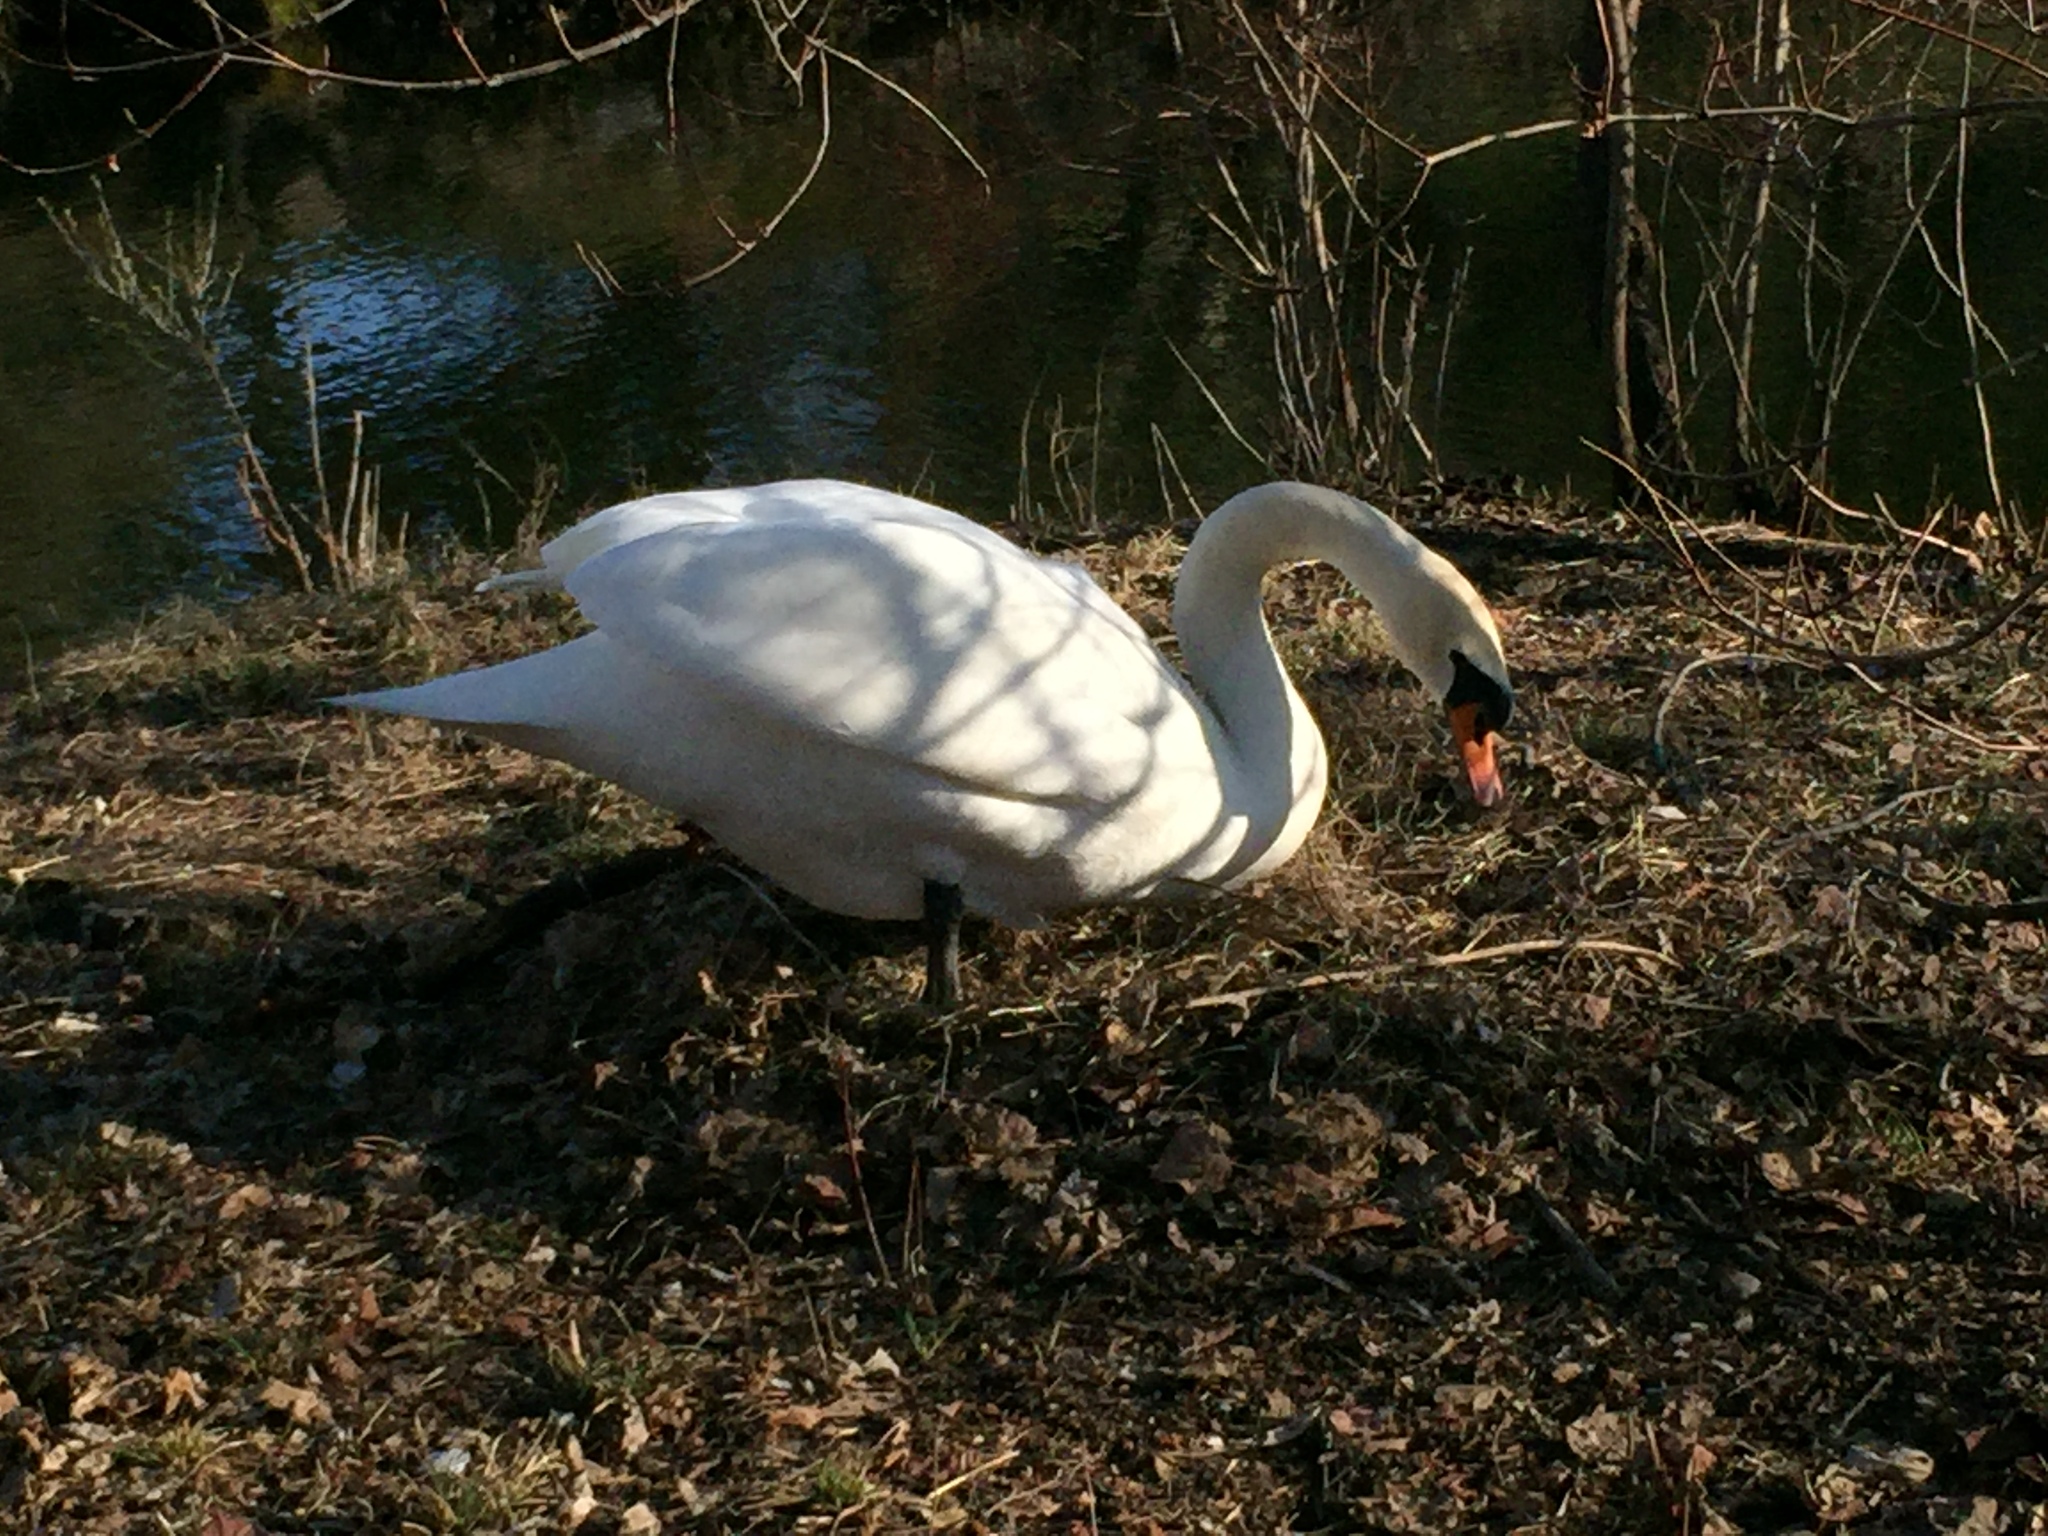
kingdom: Animalia
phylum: Chordata
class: Aves
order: Anseriformes
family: Anatidae
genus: Cygnus
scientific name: Cygnus olor
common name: Mute swan
